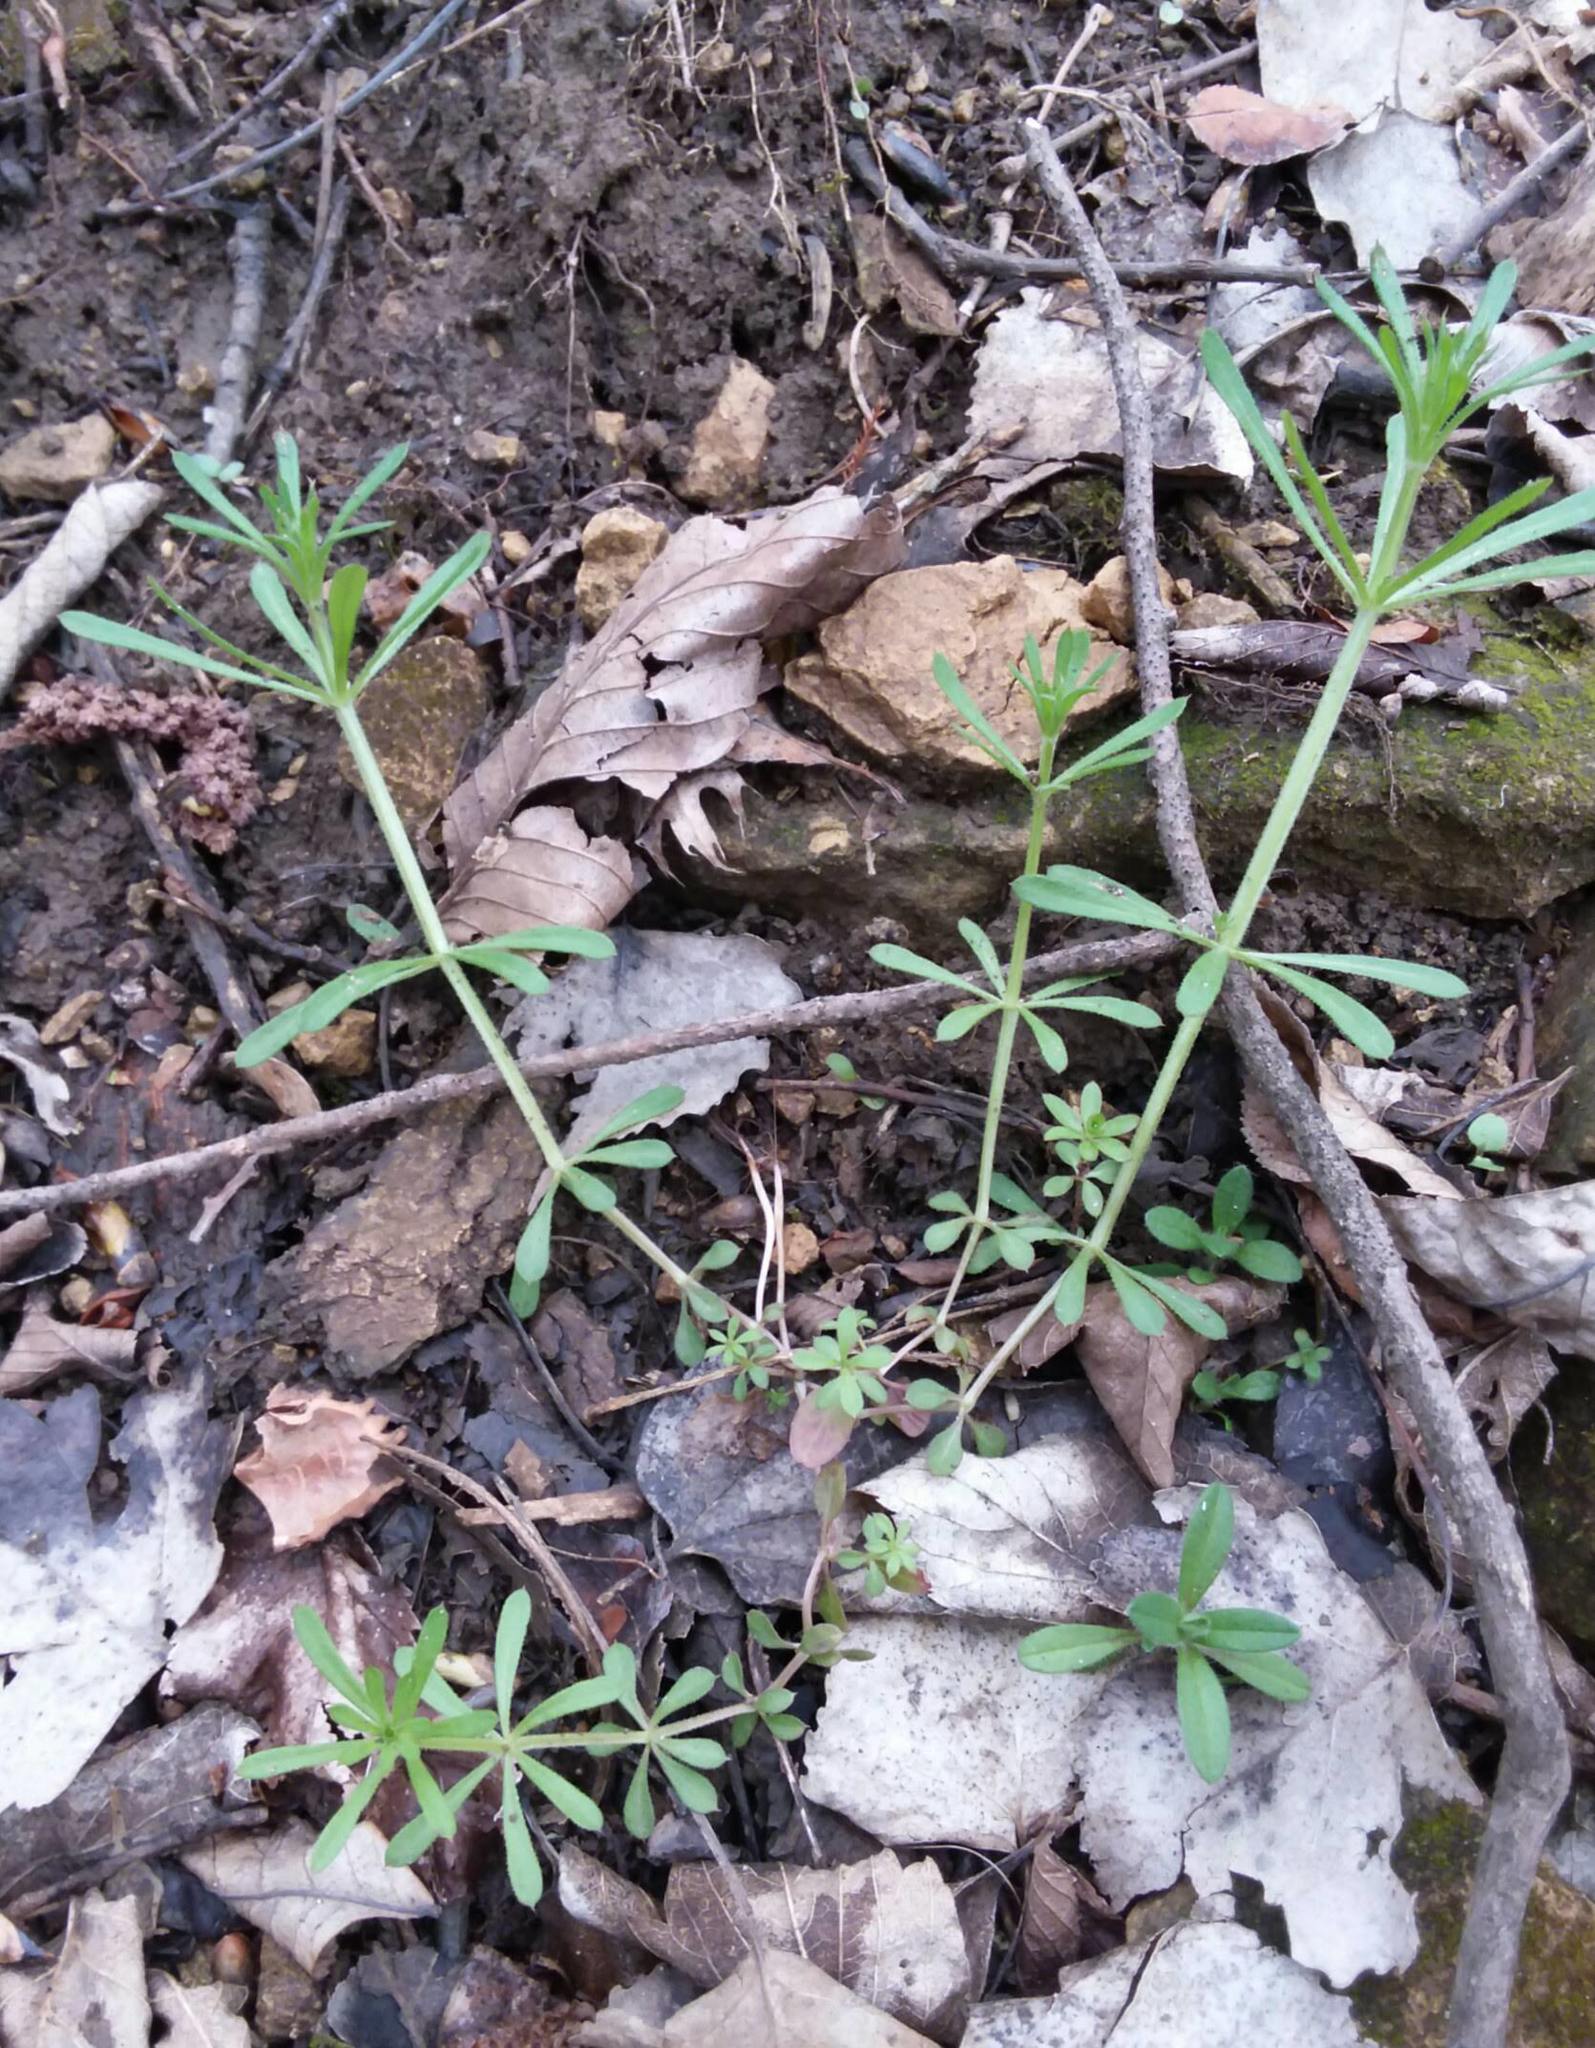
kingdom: Plantae
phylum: Tracheophyta
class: Magnoliopsida
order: Gentianales
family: Rubiaceae
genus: Galium
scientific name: Galium aparine
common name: Cleavers
